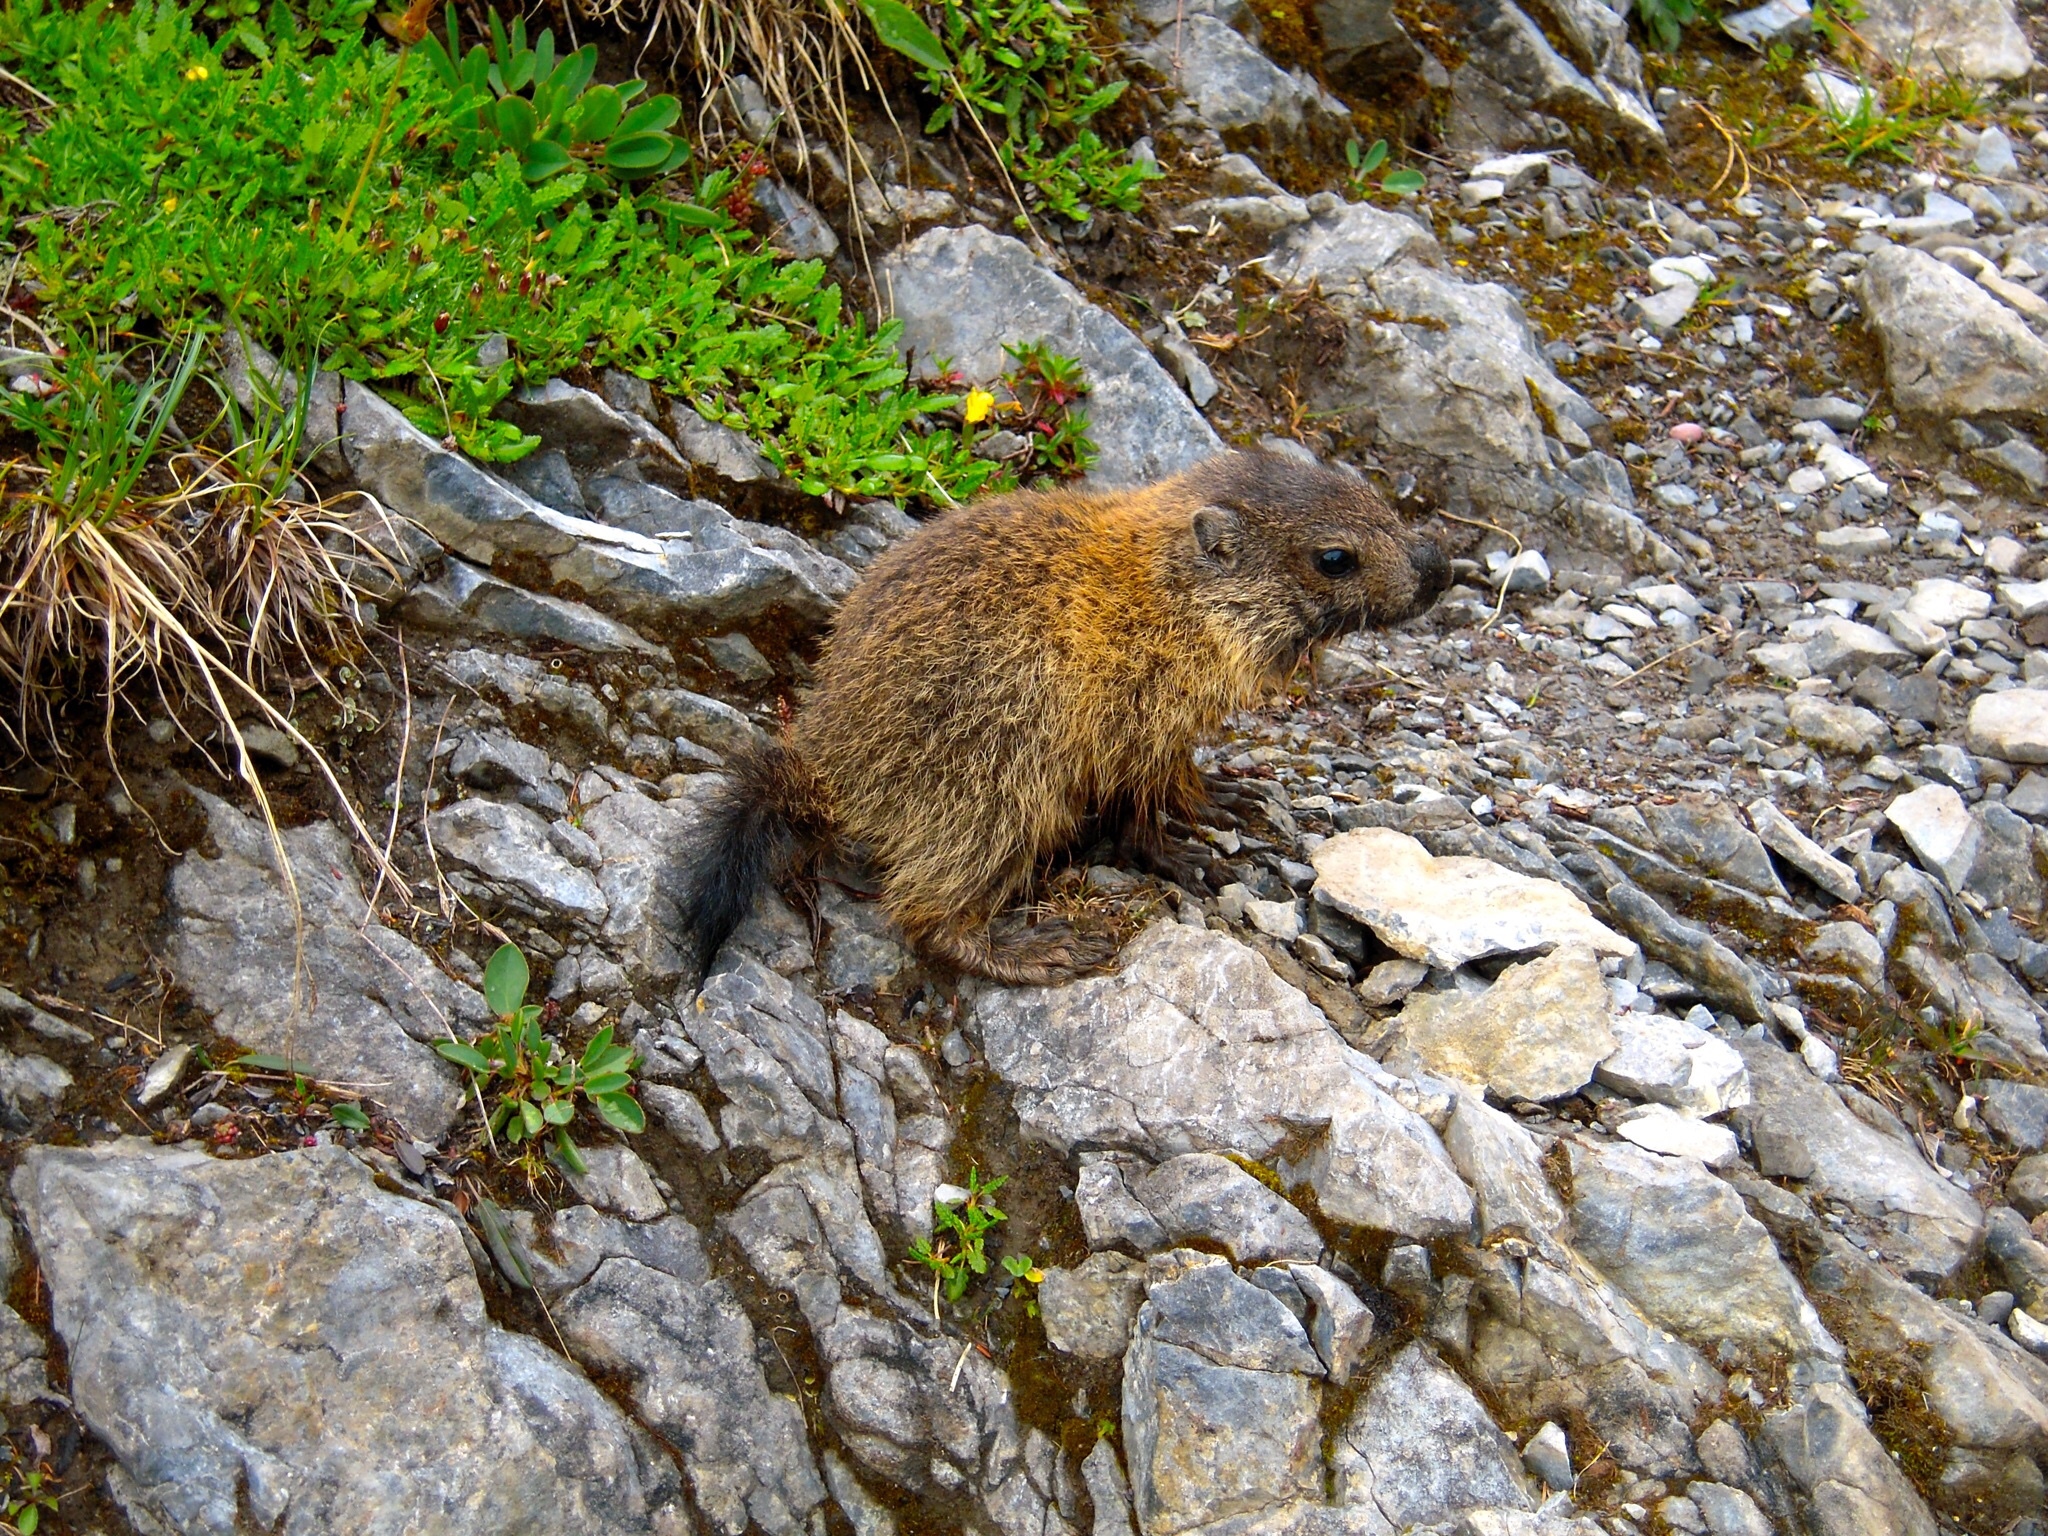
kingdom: Animalia
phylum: Chordata
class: Mammalia
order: Rodentia
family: Sciuridae
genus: Marmota
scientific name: Marmota marmota
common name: Alpine marmot
